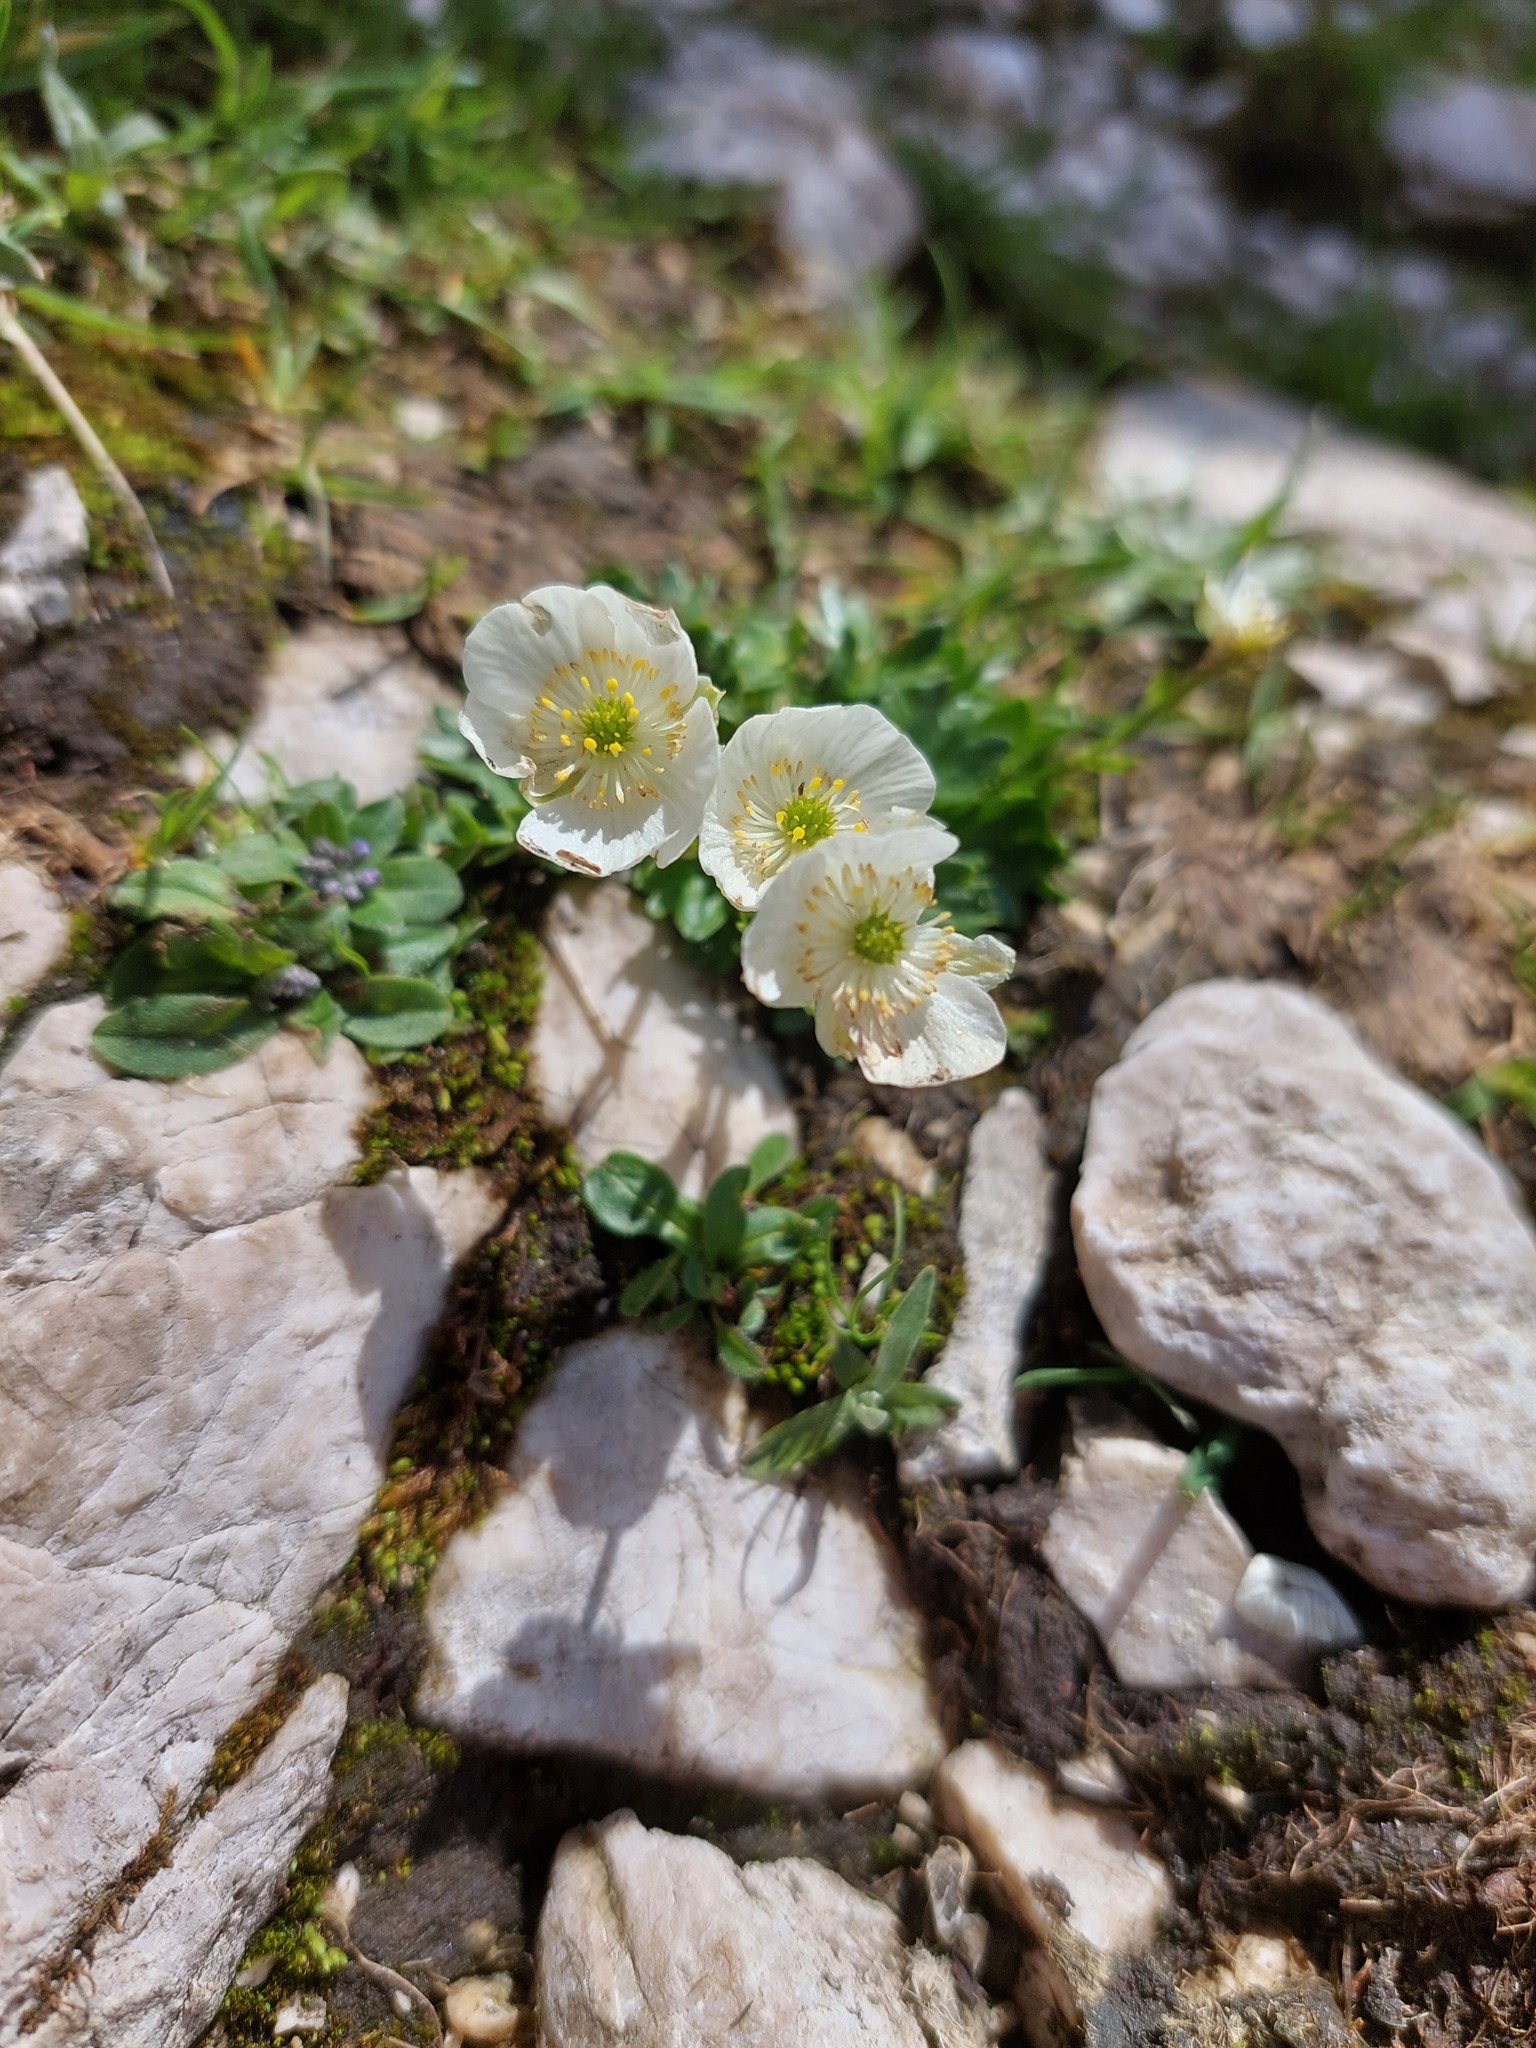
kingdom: Plantae
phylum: Tracheophyta
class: Magnoliopsida
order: Ranunculales
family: Ranunculaceae
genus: Ranunculus
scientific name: Ranunculus traunfellneri
